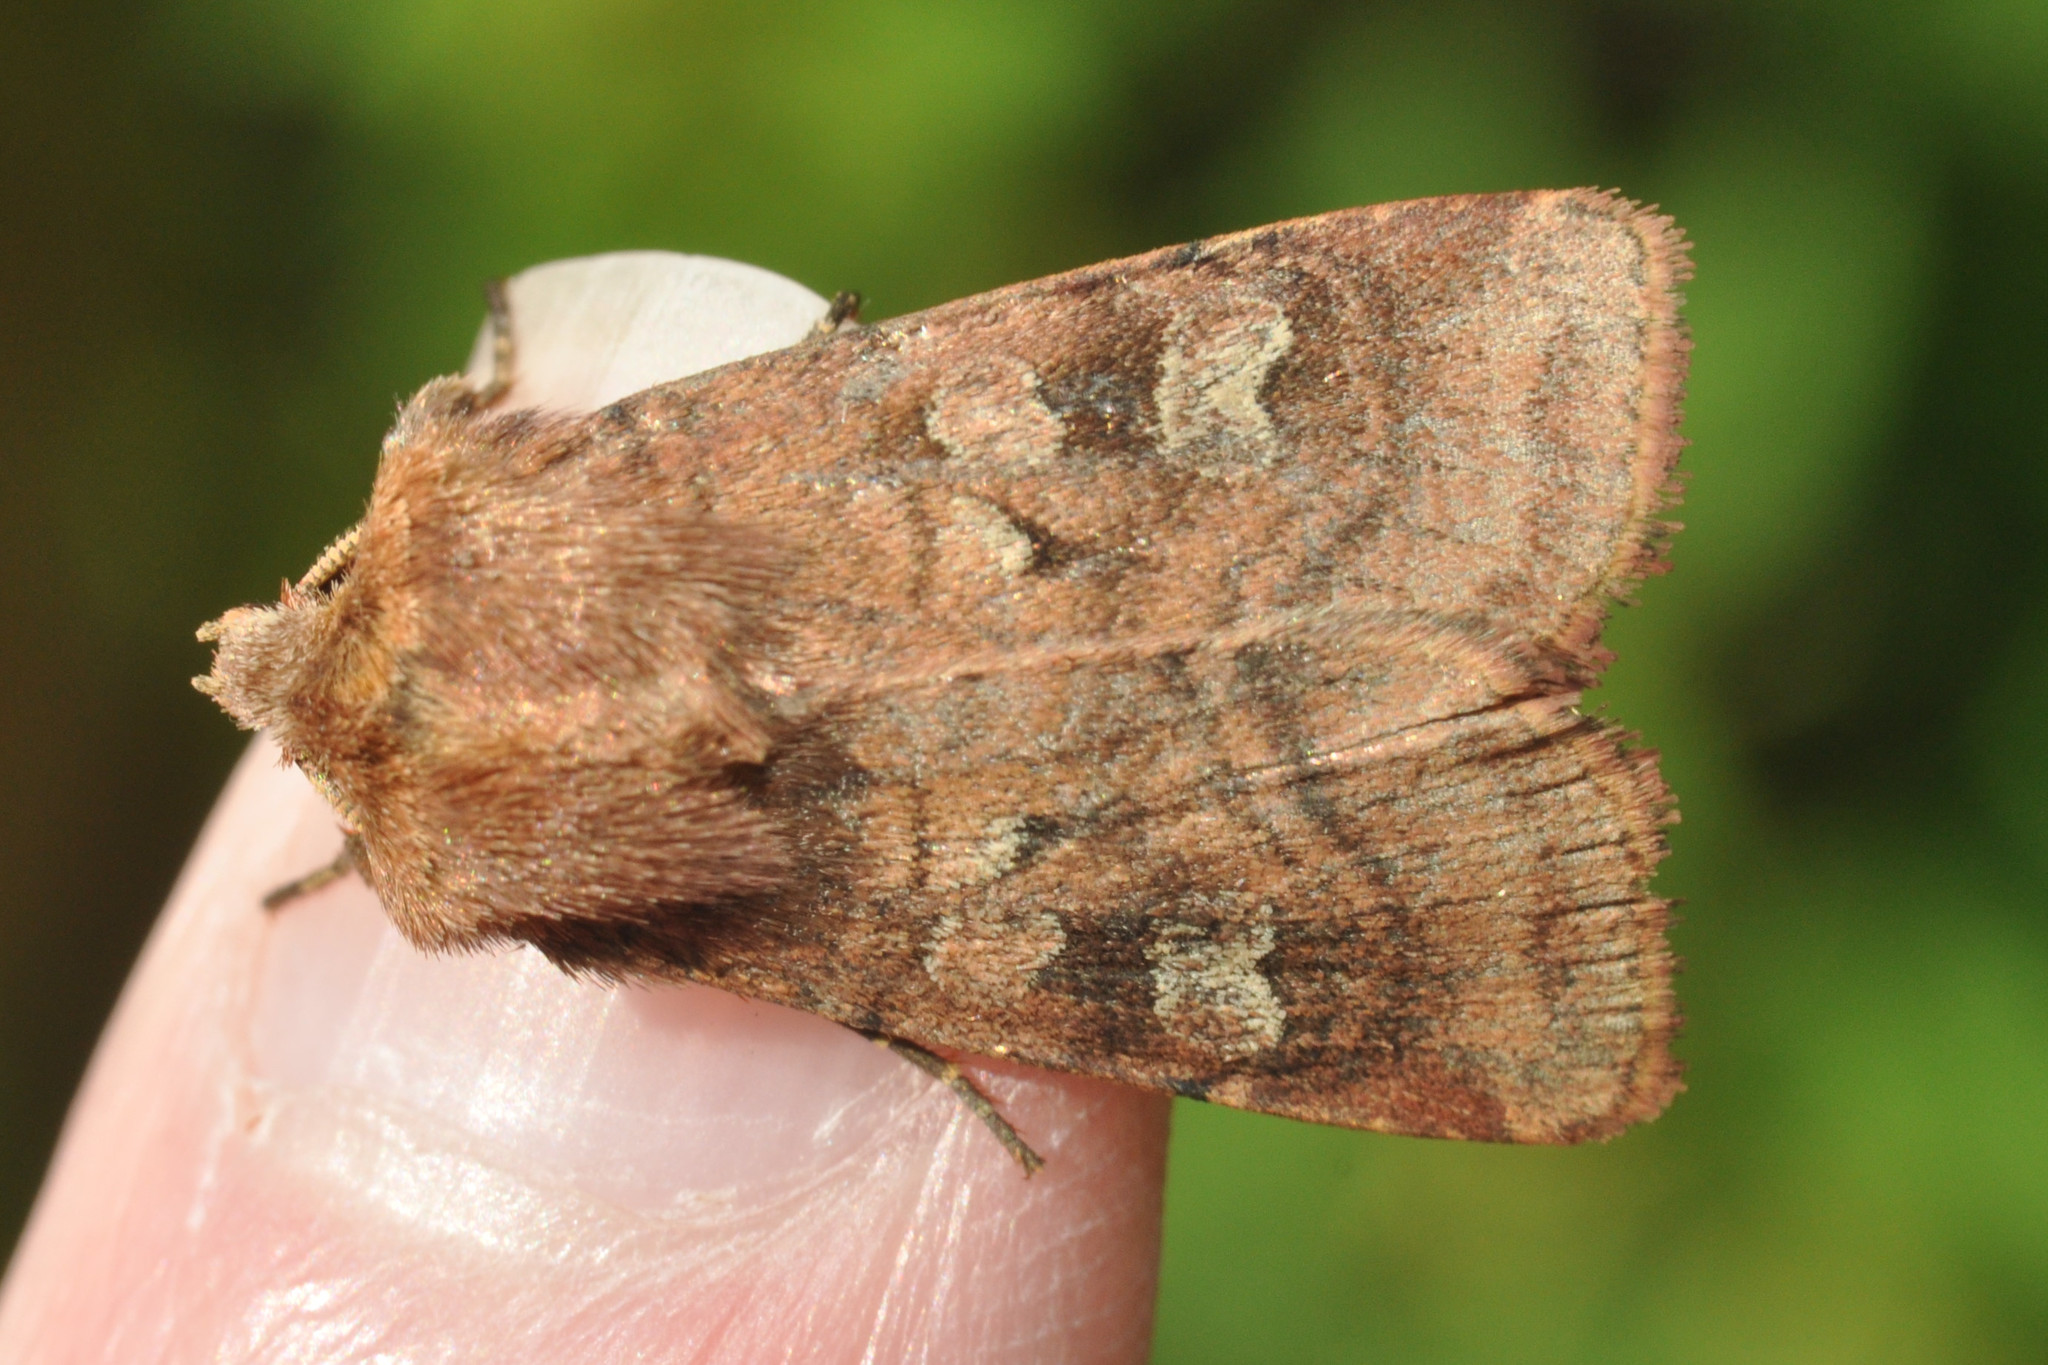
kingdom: Animalia
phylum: Arthropoda
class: Insecta
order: Lepidoptera
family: Noctuidae
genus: Diarsia
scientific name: Diarsia rubi
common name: Small square-spot
